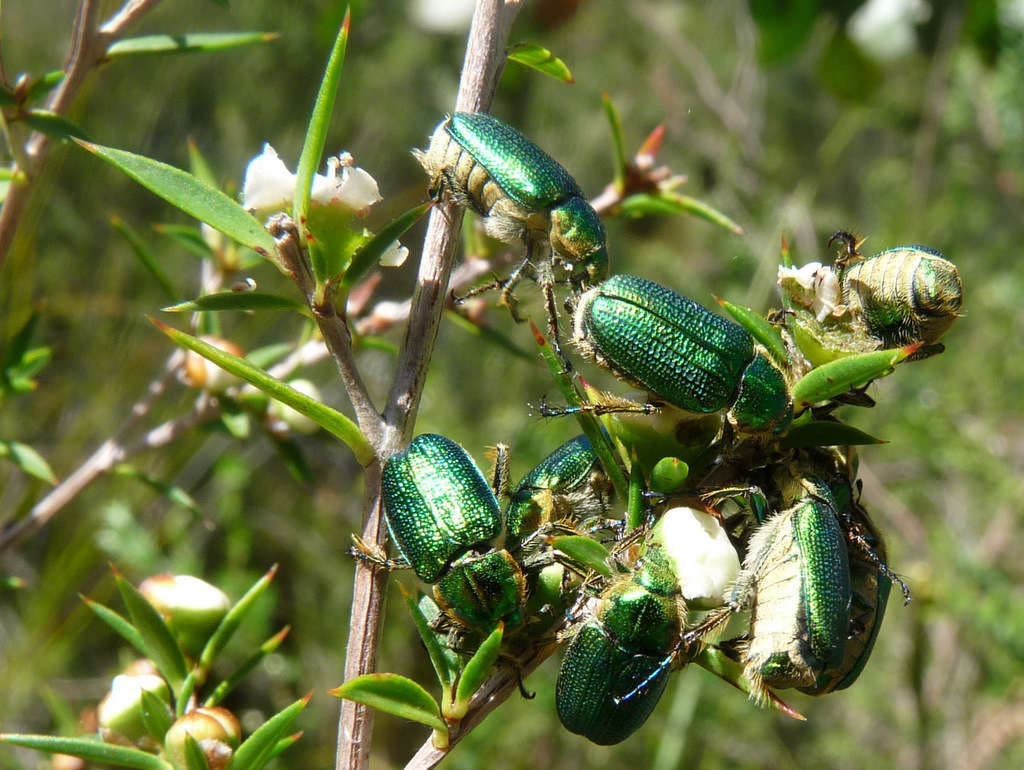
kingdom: Animalia
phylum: Arthropoda
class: Insecta
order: Coleoptera
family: Scarabaeidae
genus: Diphucephala
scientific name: Diphucephala colaspidoides
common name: Green scarab beetle
